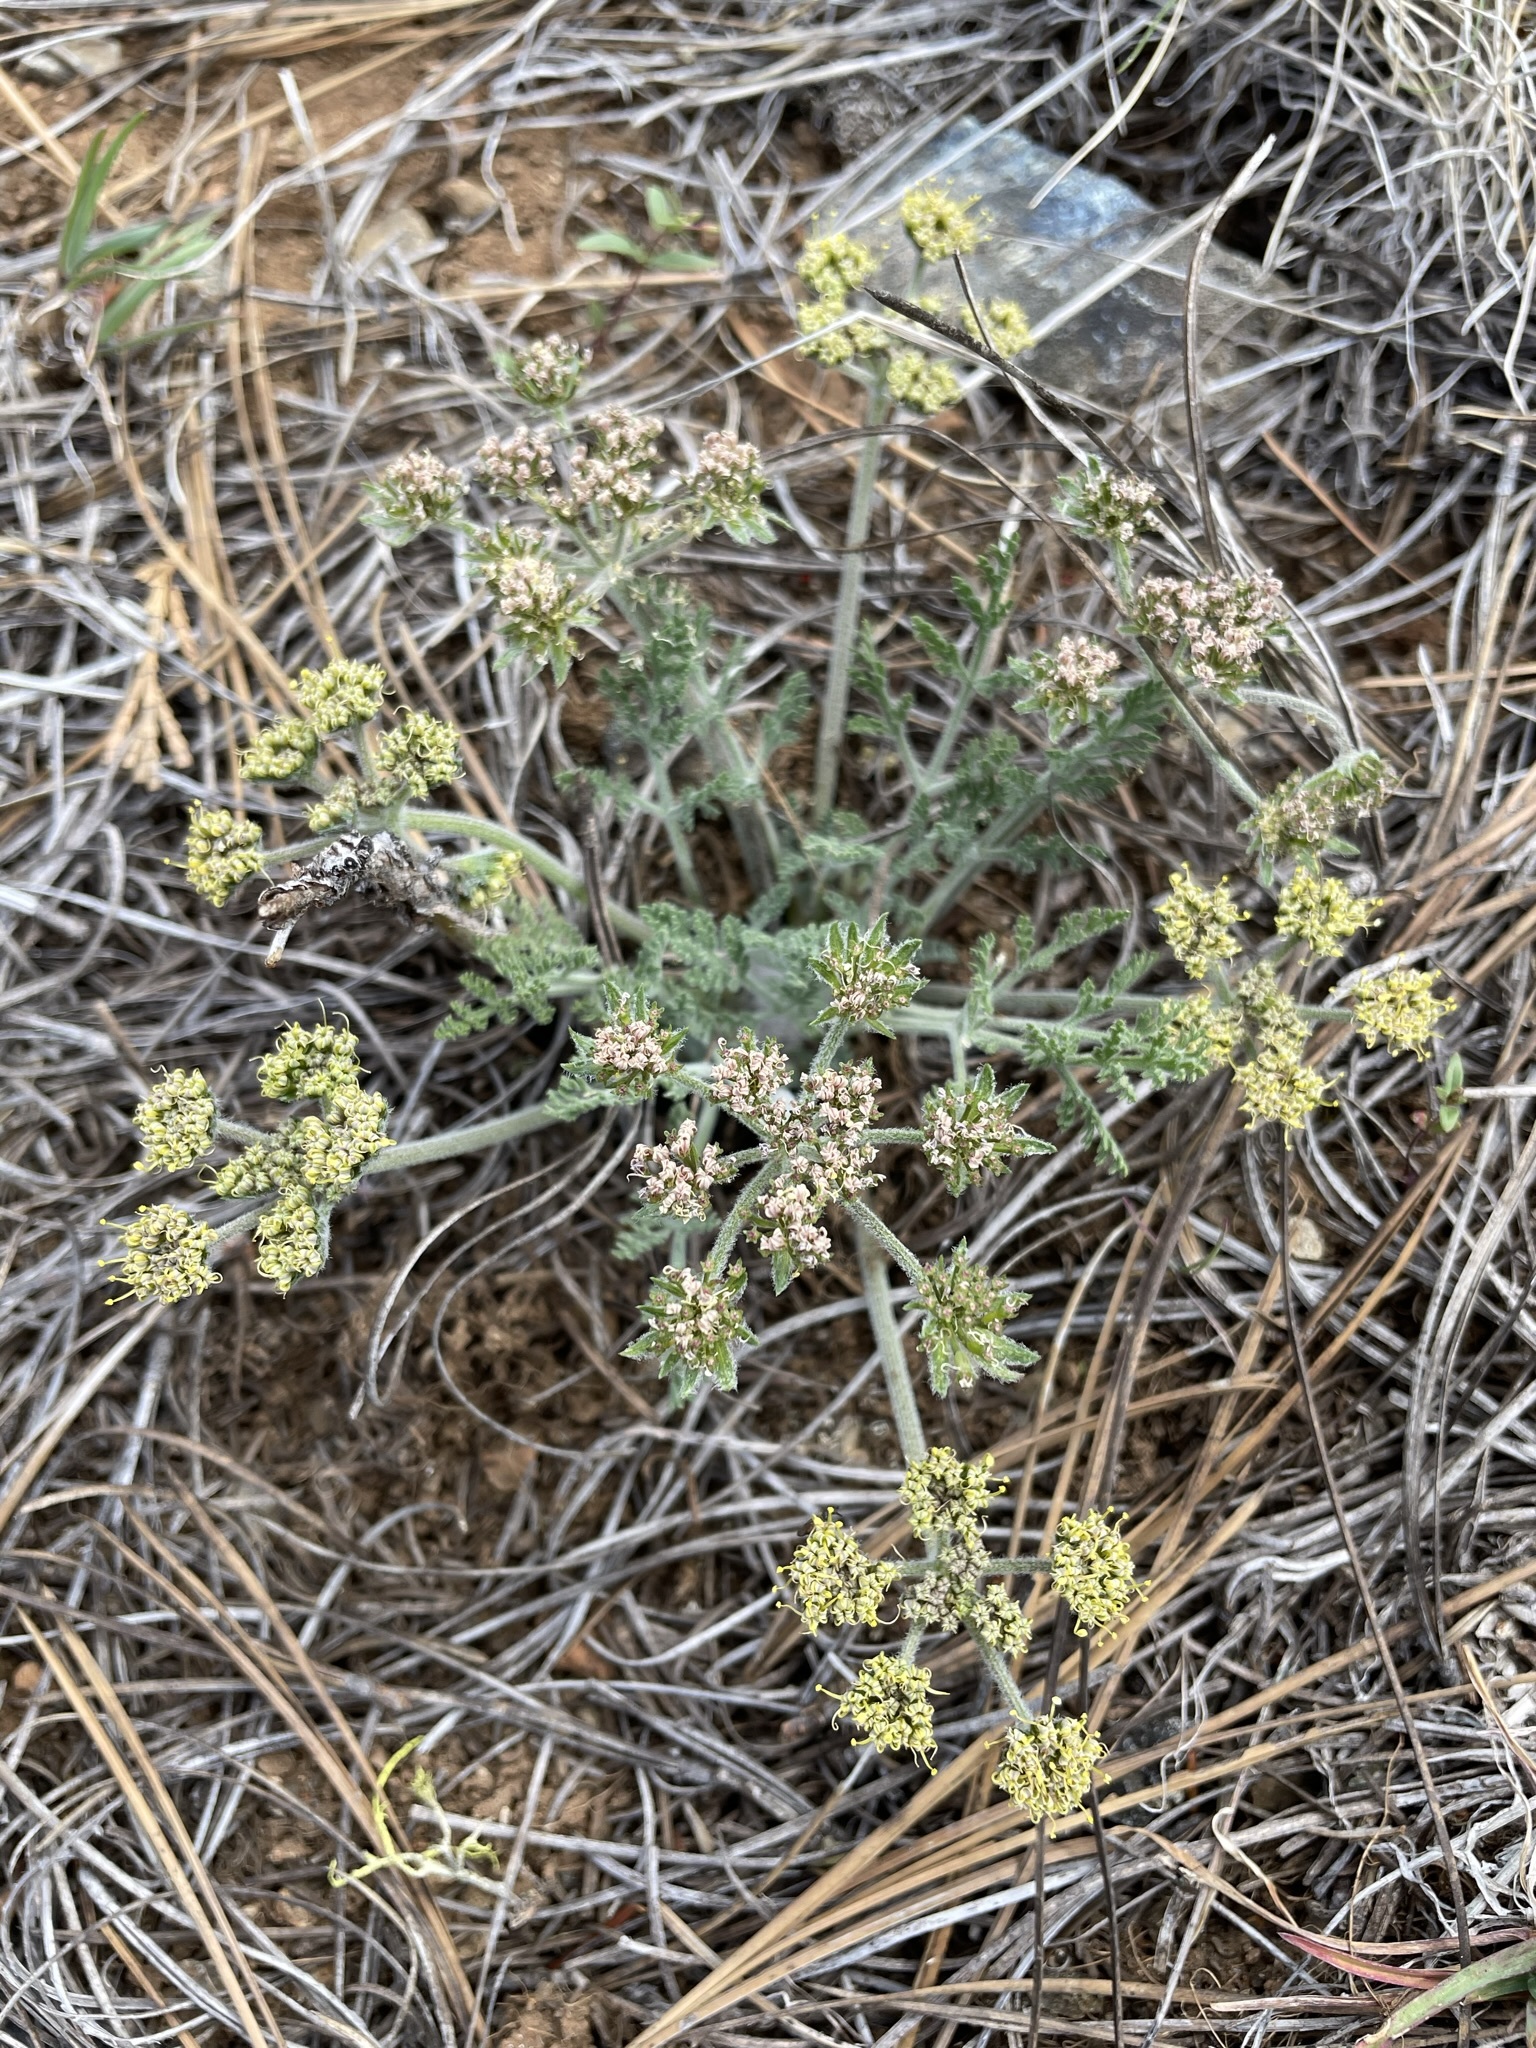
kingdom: Plantae
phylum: Tracheophyta
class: Magnoliopsida
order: Apiales
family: Apiaceae
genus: Lomatium
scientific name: Lomatium macrocarpum
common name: Big-seed biscuitroot
